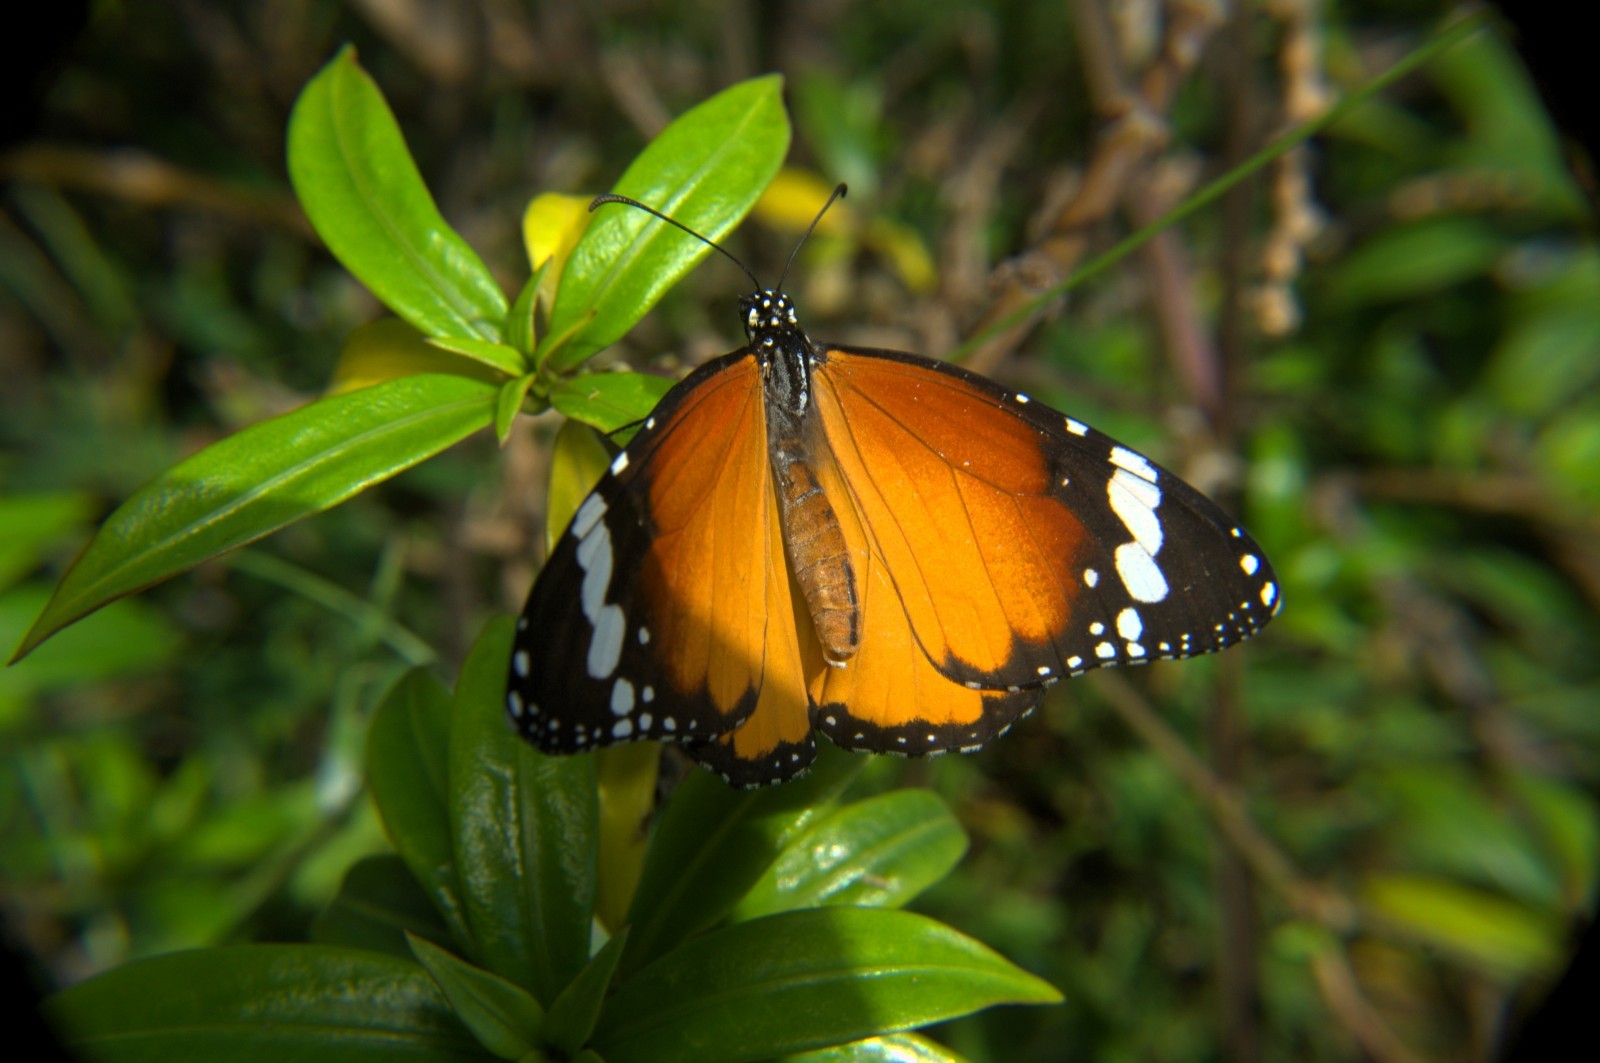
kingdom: Animalia
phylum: Arthropoda
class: Insecta
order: Lepidoptera
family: Nymphalidae
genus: Danaus
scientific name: Danaus chrysippus
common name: Plain tiger
